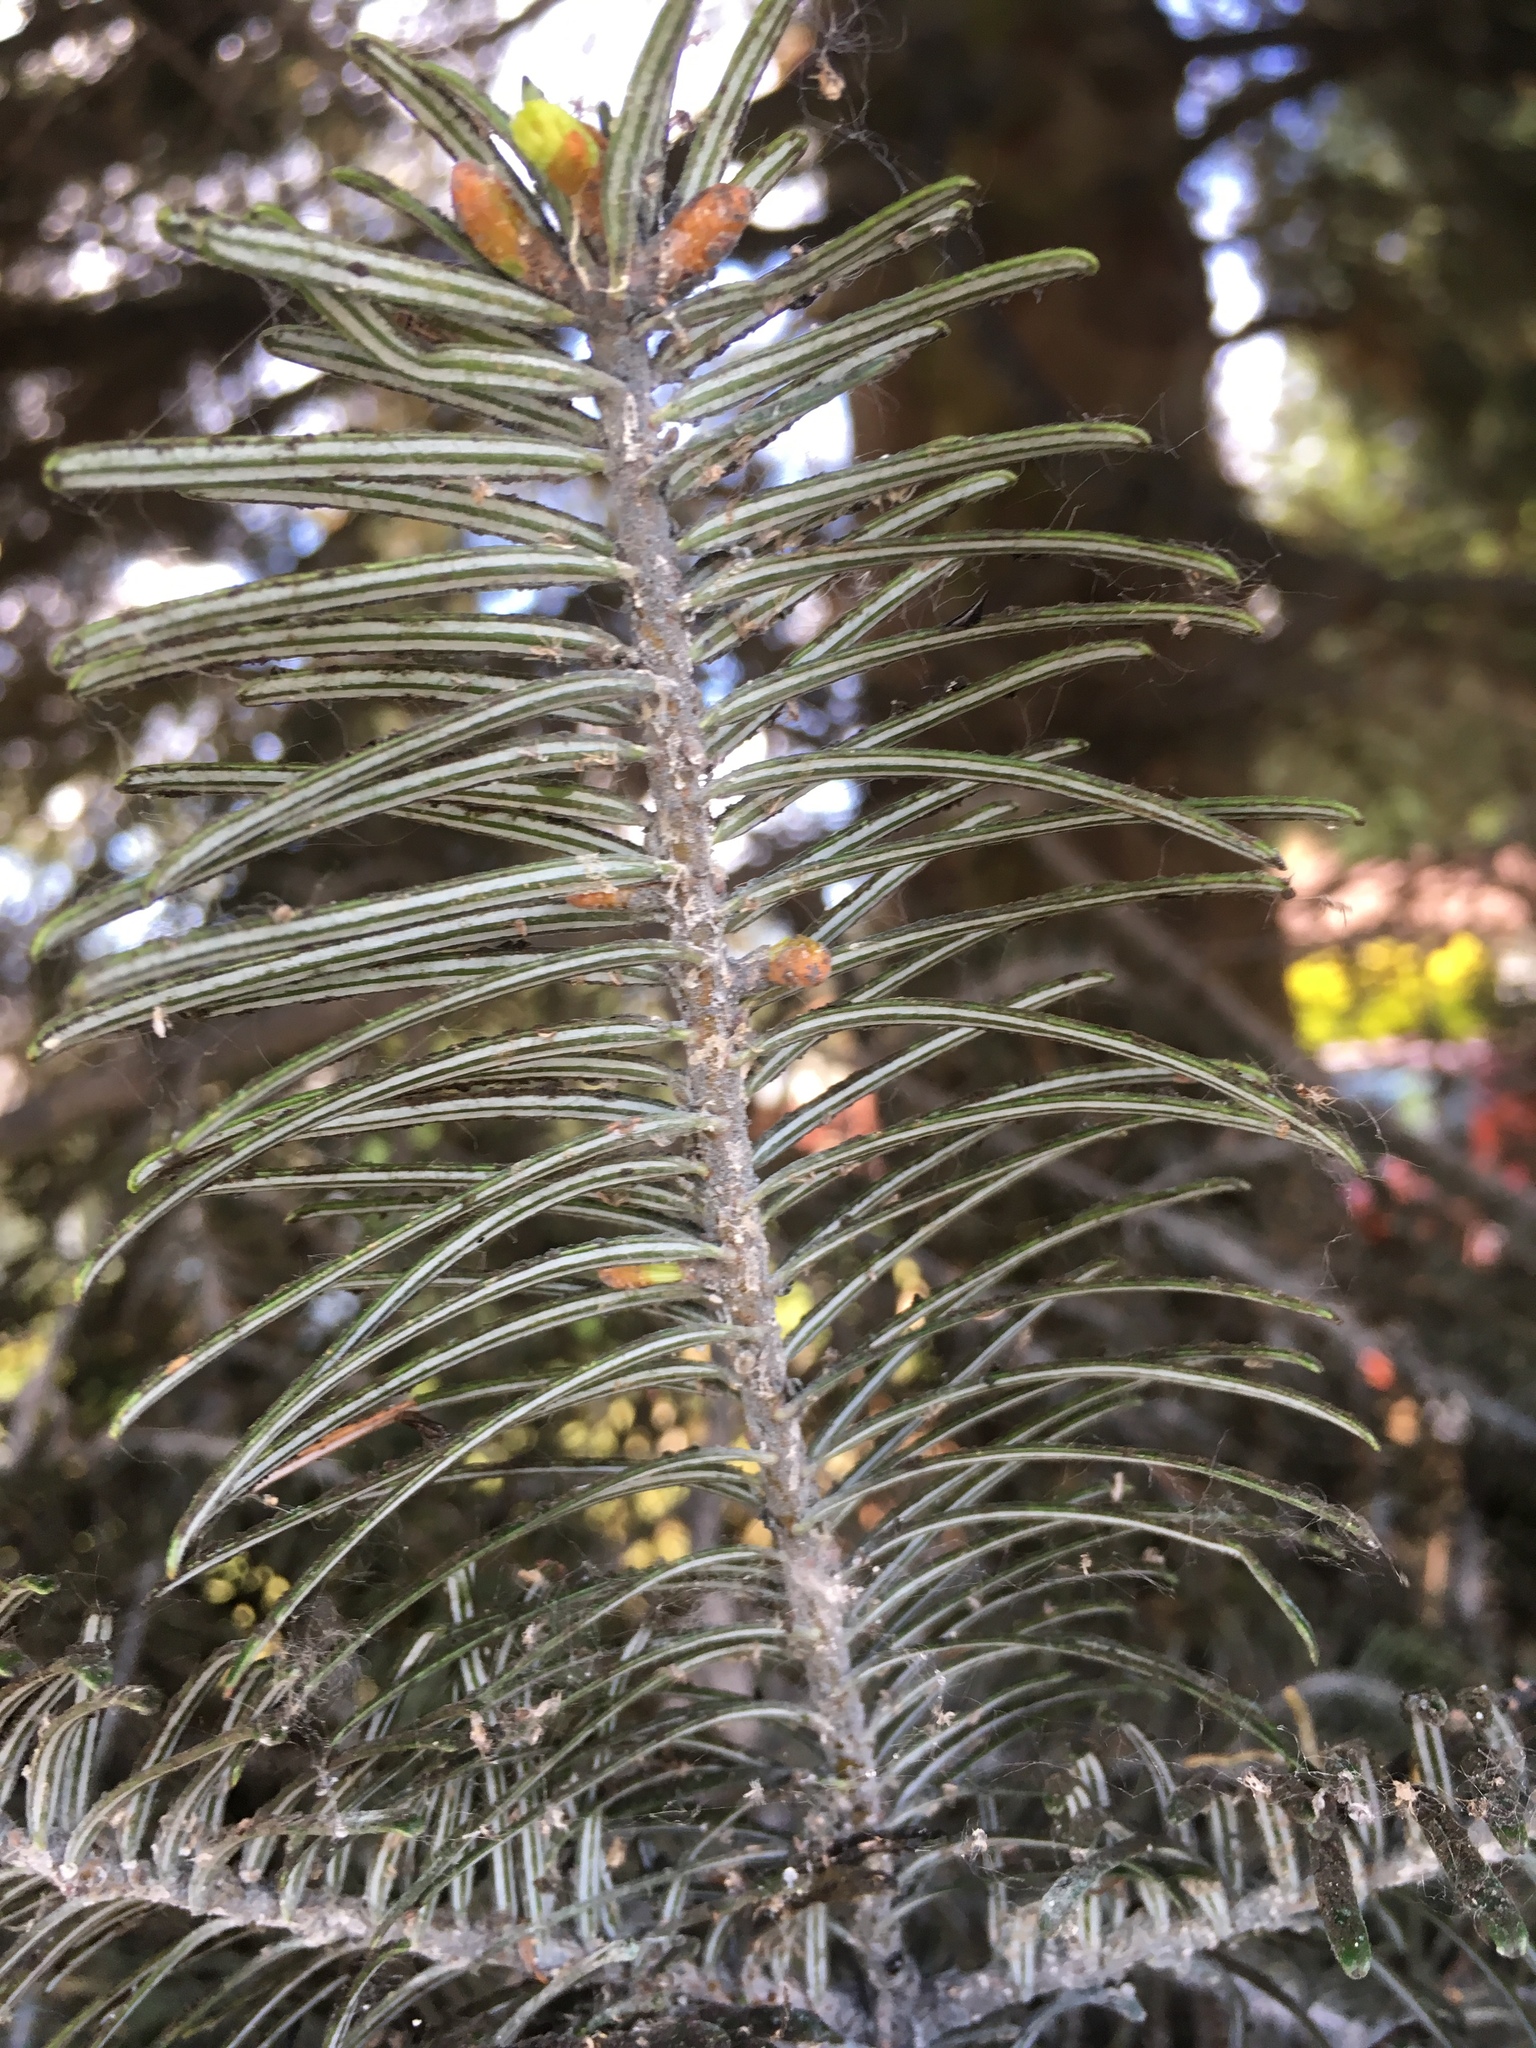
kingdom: Plantae
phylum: Tracheophyta
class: Pinopsida
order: Pinales
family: Pinaceae
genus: Abies
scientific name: Abies grandis
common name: Giant fir
